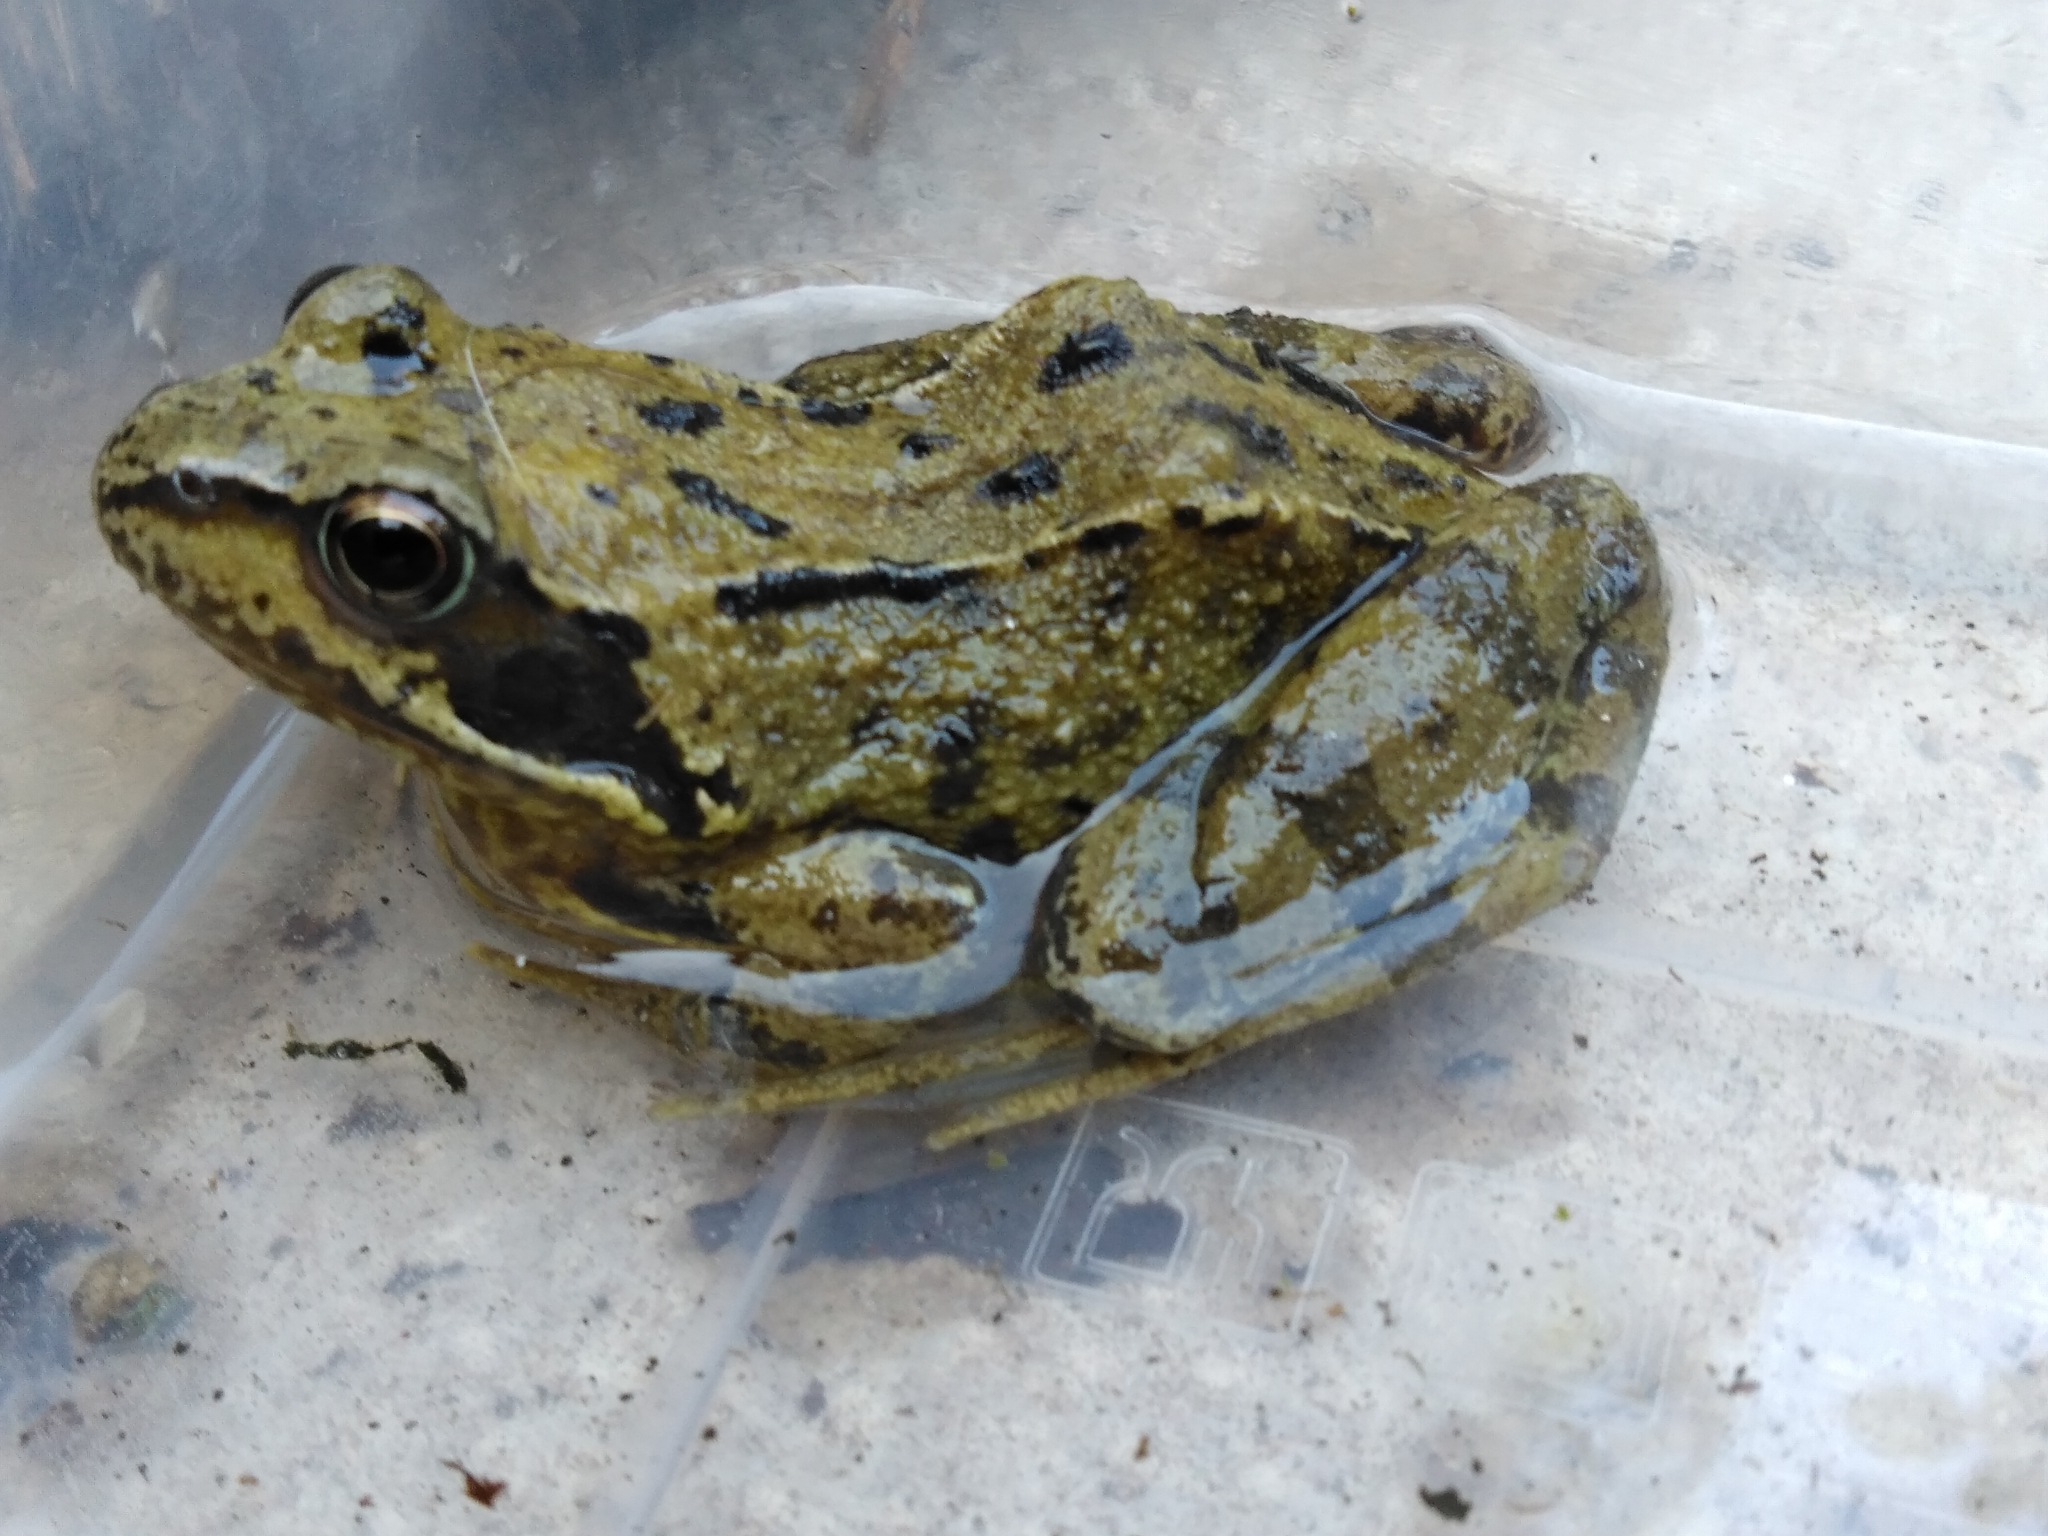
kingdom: Animalia
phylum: Chordata
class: Amphibia
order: Anura
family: Ranidae
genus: Rana
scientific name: Rana temporaria
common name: Common frog
